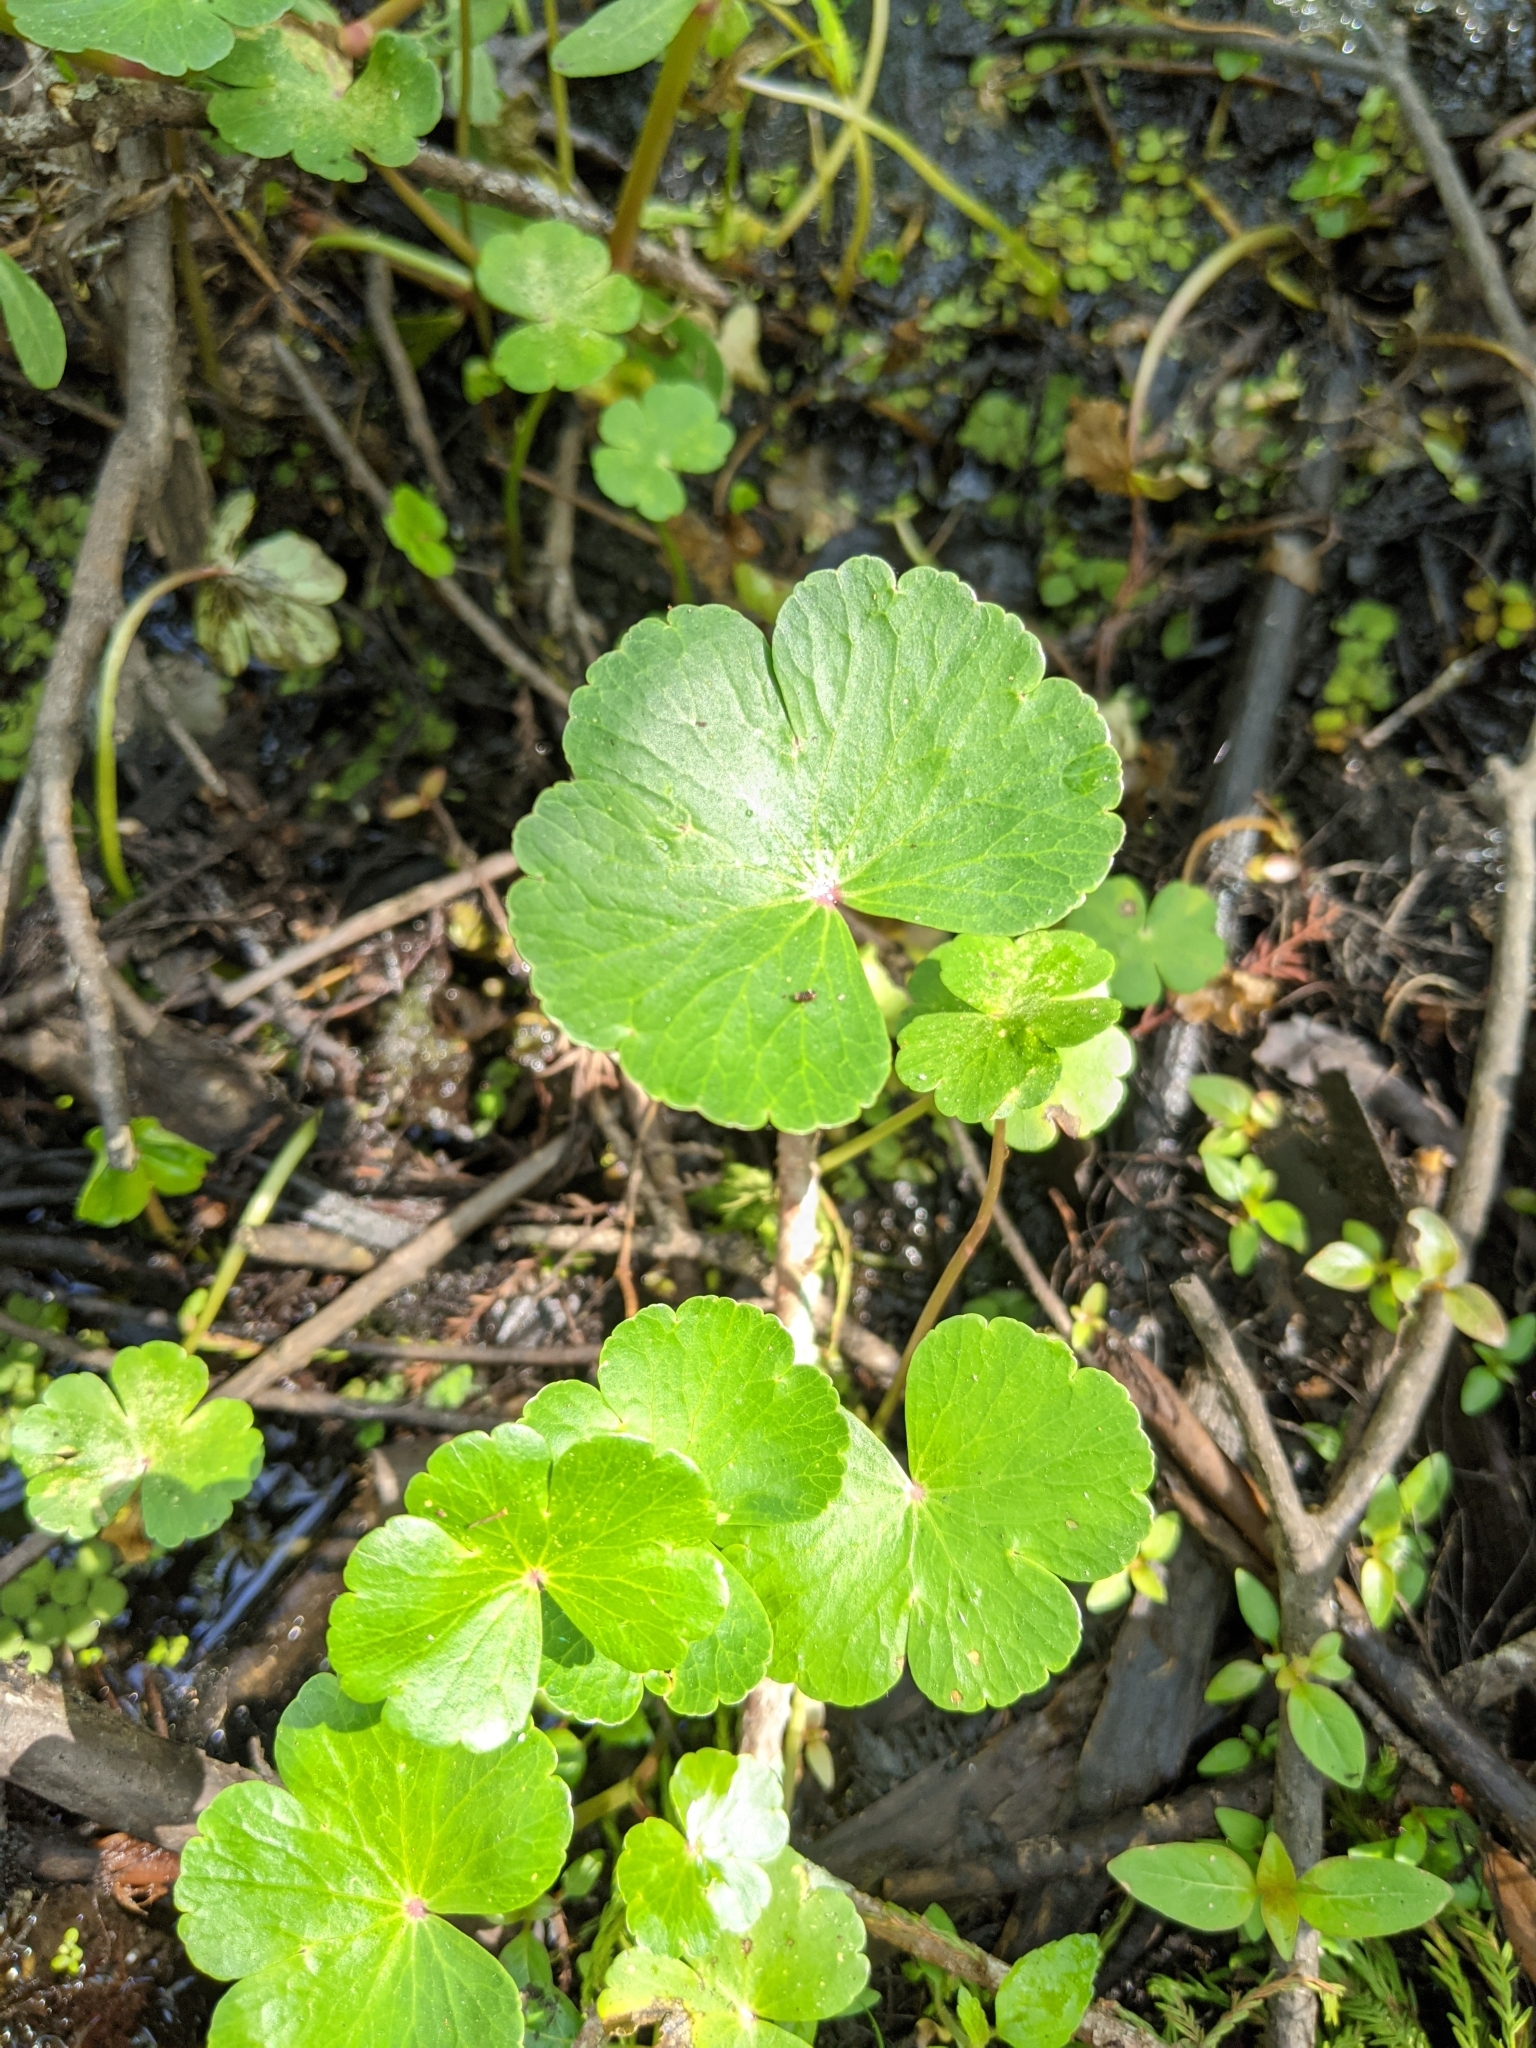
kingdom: Plantae
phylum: Tracheophyta
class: Magnoliopsida
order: Apiales
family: Araliaceae
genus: Hydrocotyle
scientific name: Hydrocotyle ranunculoides
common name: Floating pennywort
